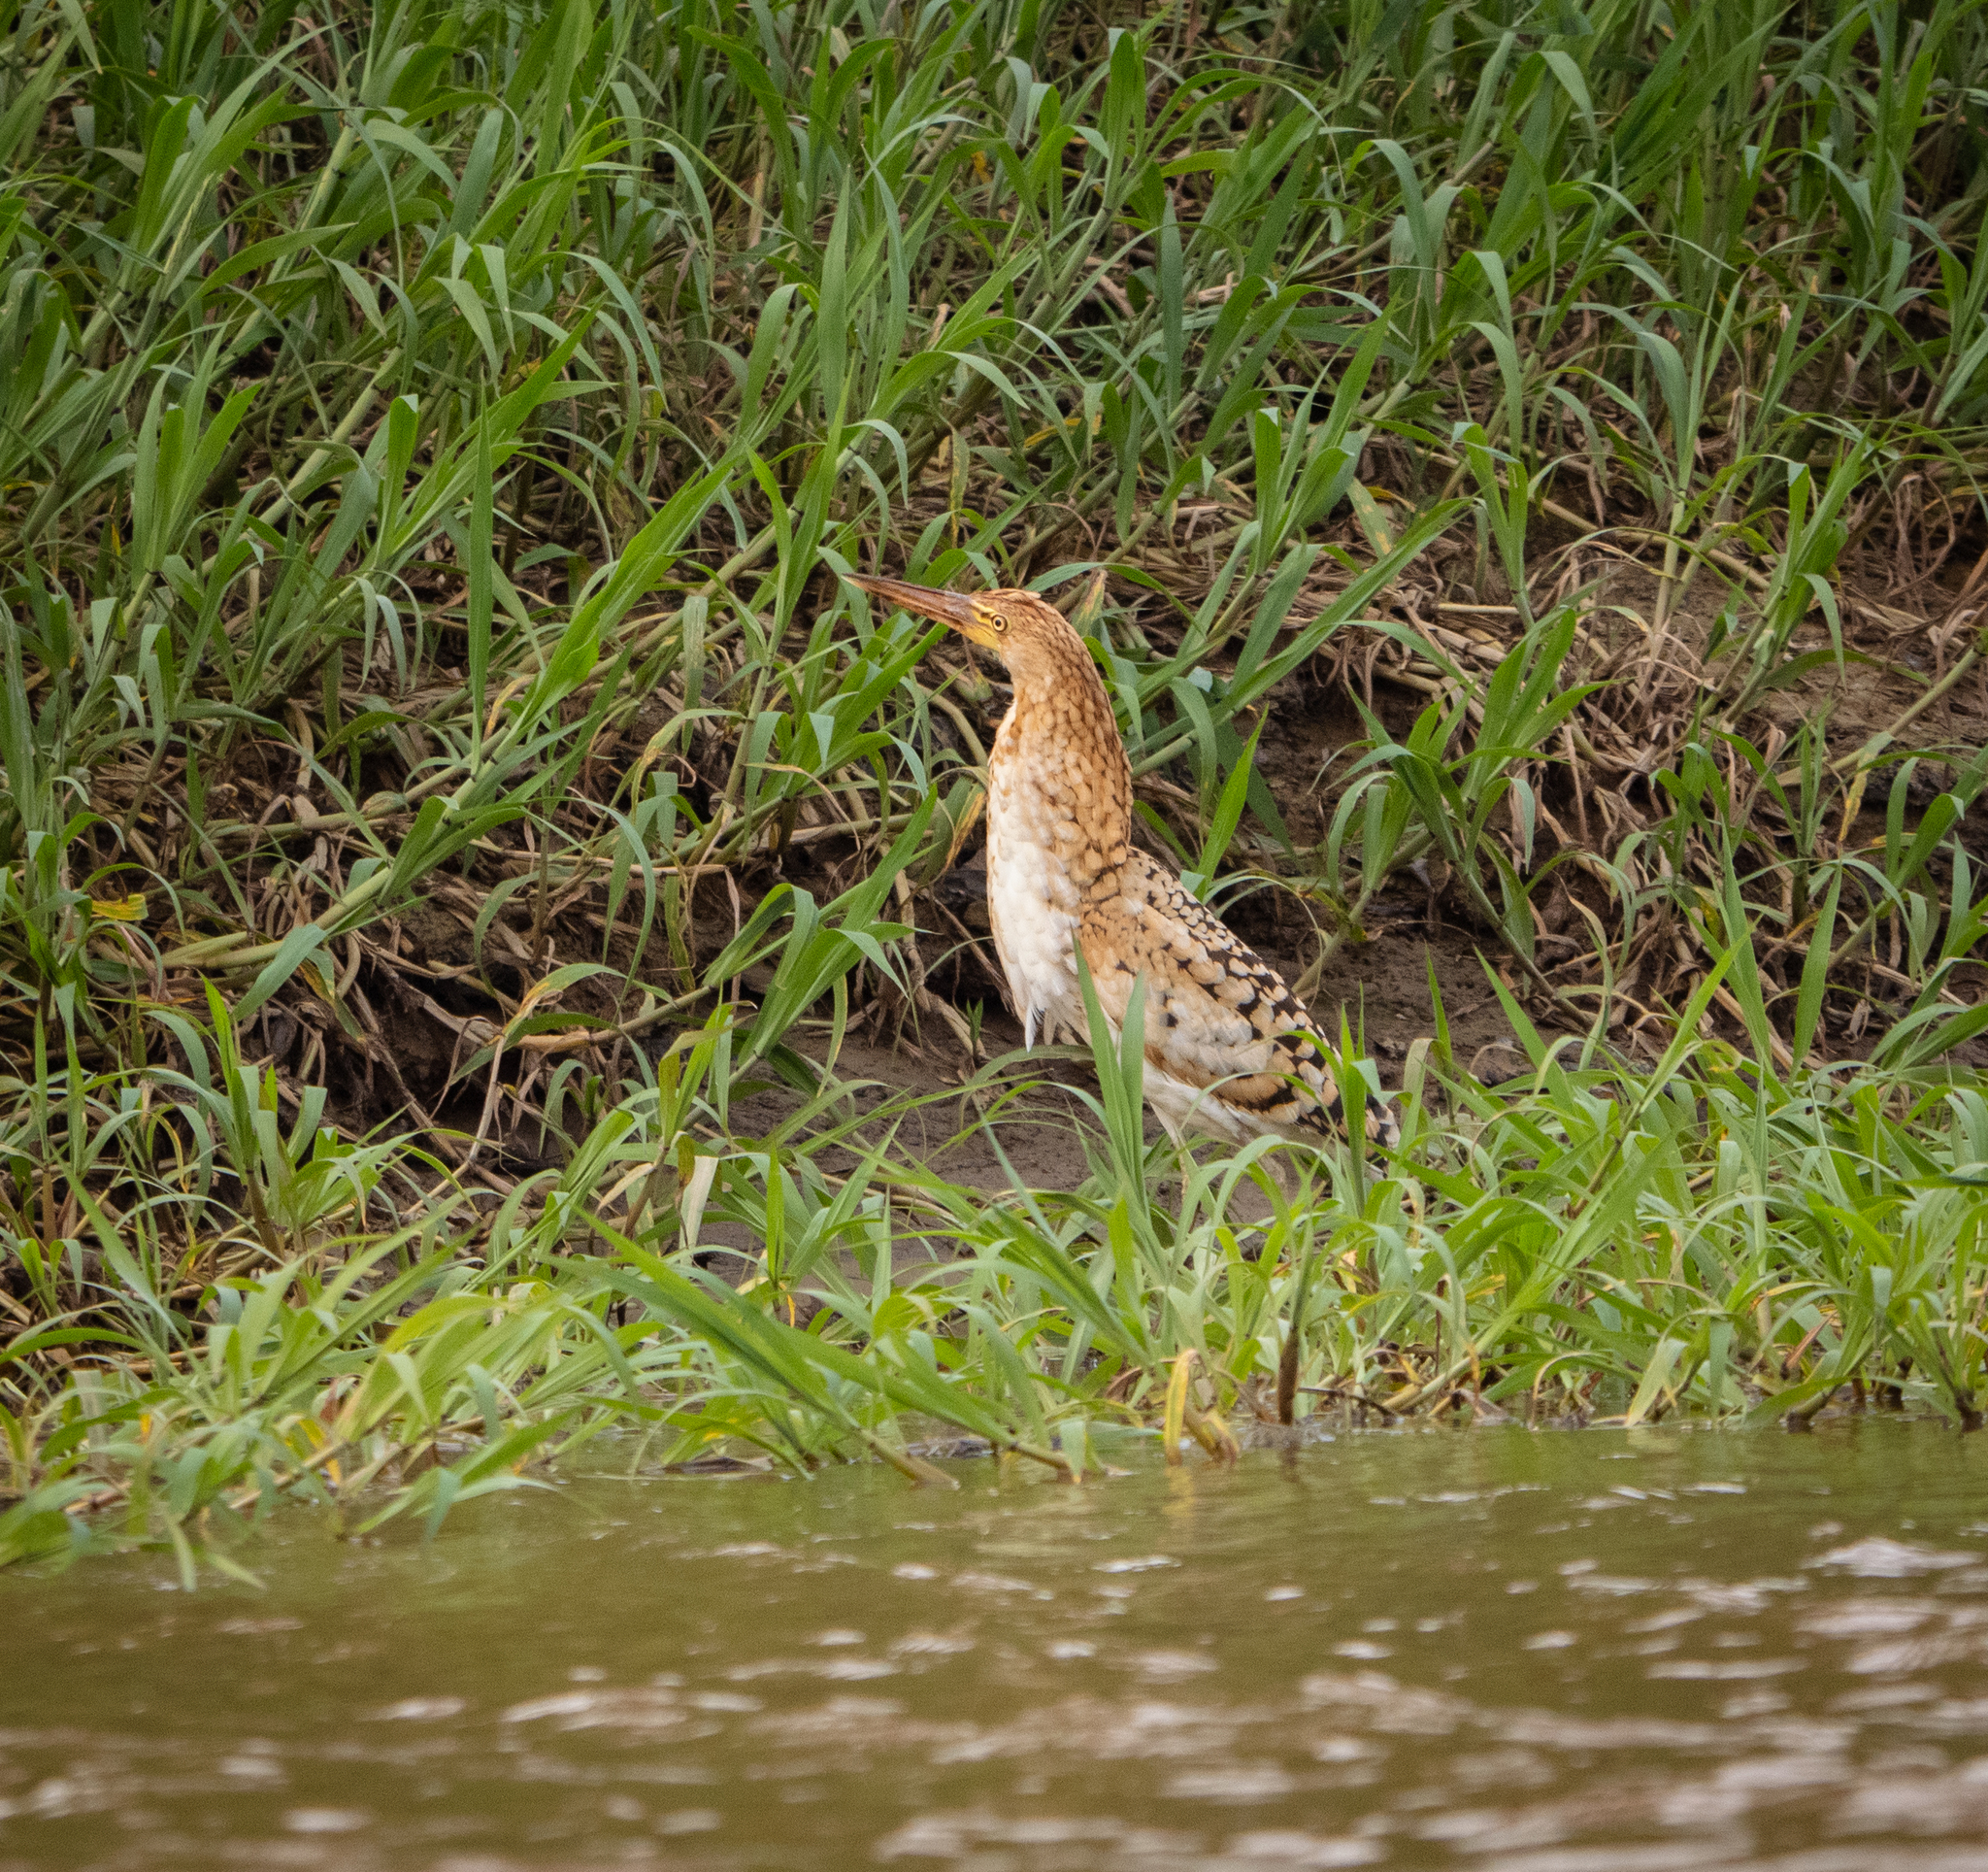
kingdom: Animalia
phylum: Chordata
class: Aves
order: Pelecaniformes
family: Ardeidae
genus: Tigrisoma
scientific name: Tigrisoma lineatum
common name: Rufescent tiger-heron
